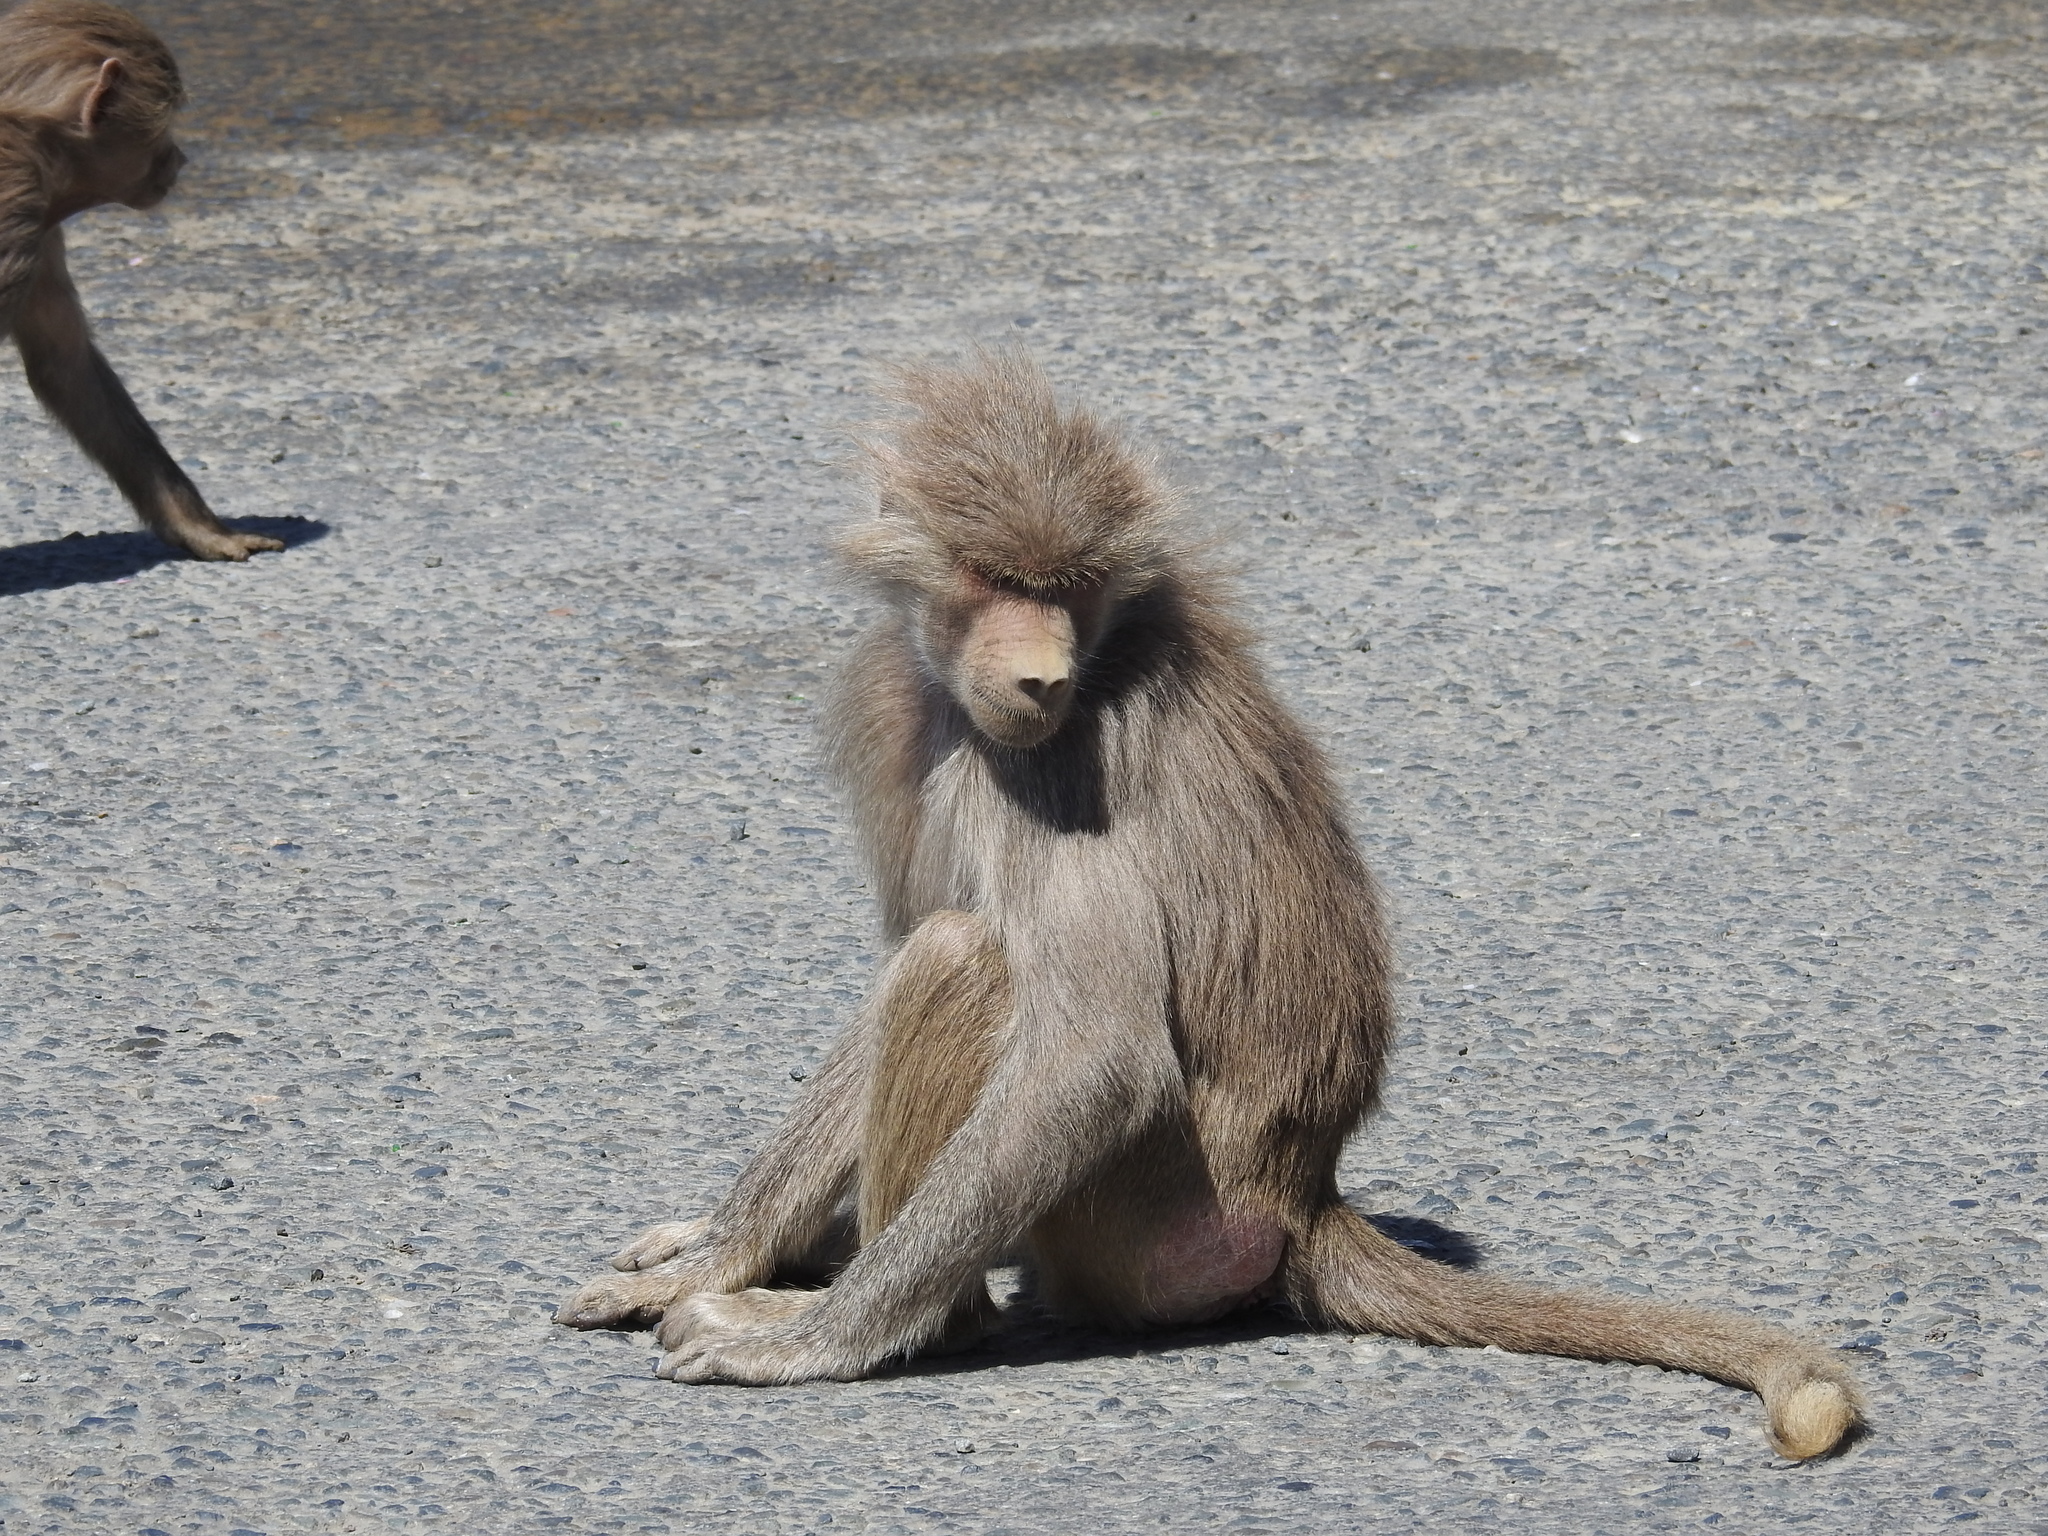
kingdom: Animalia
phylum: Chordata
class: Mammalia
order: Primates
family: Cercopithecidae
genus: Papio
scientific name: Papio hamadryas
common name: Hamadryas baboon
